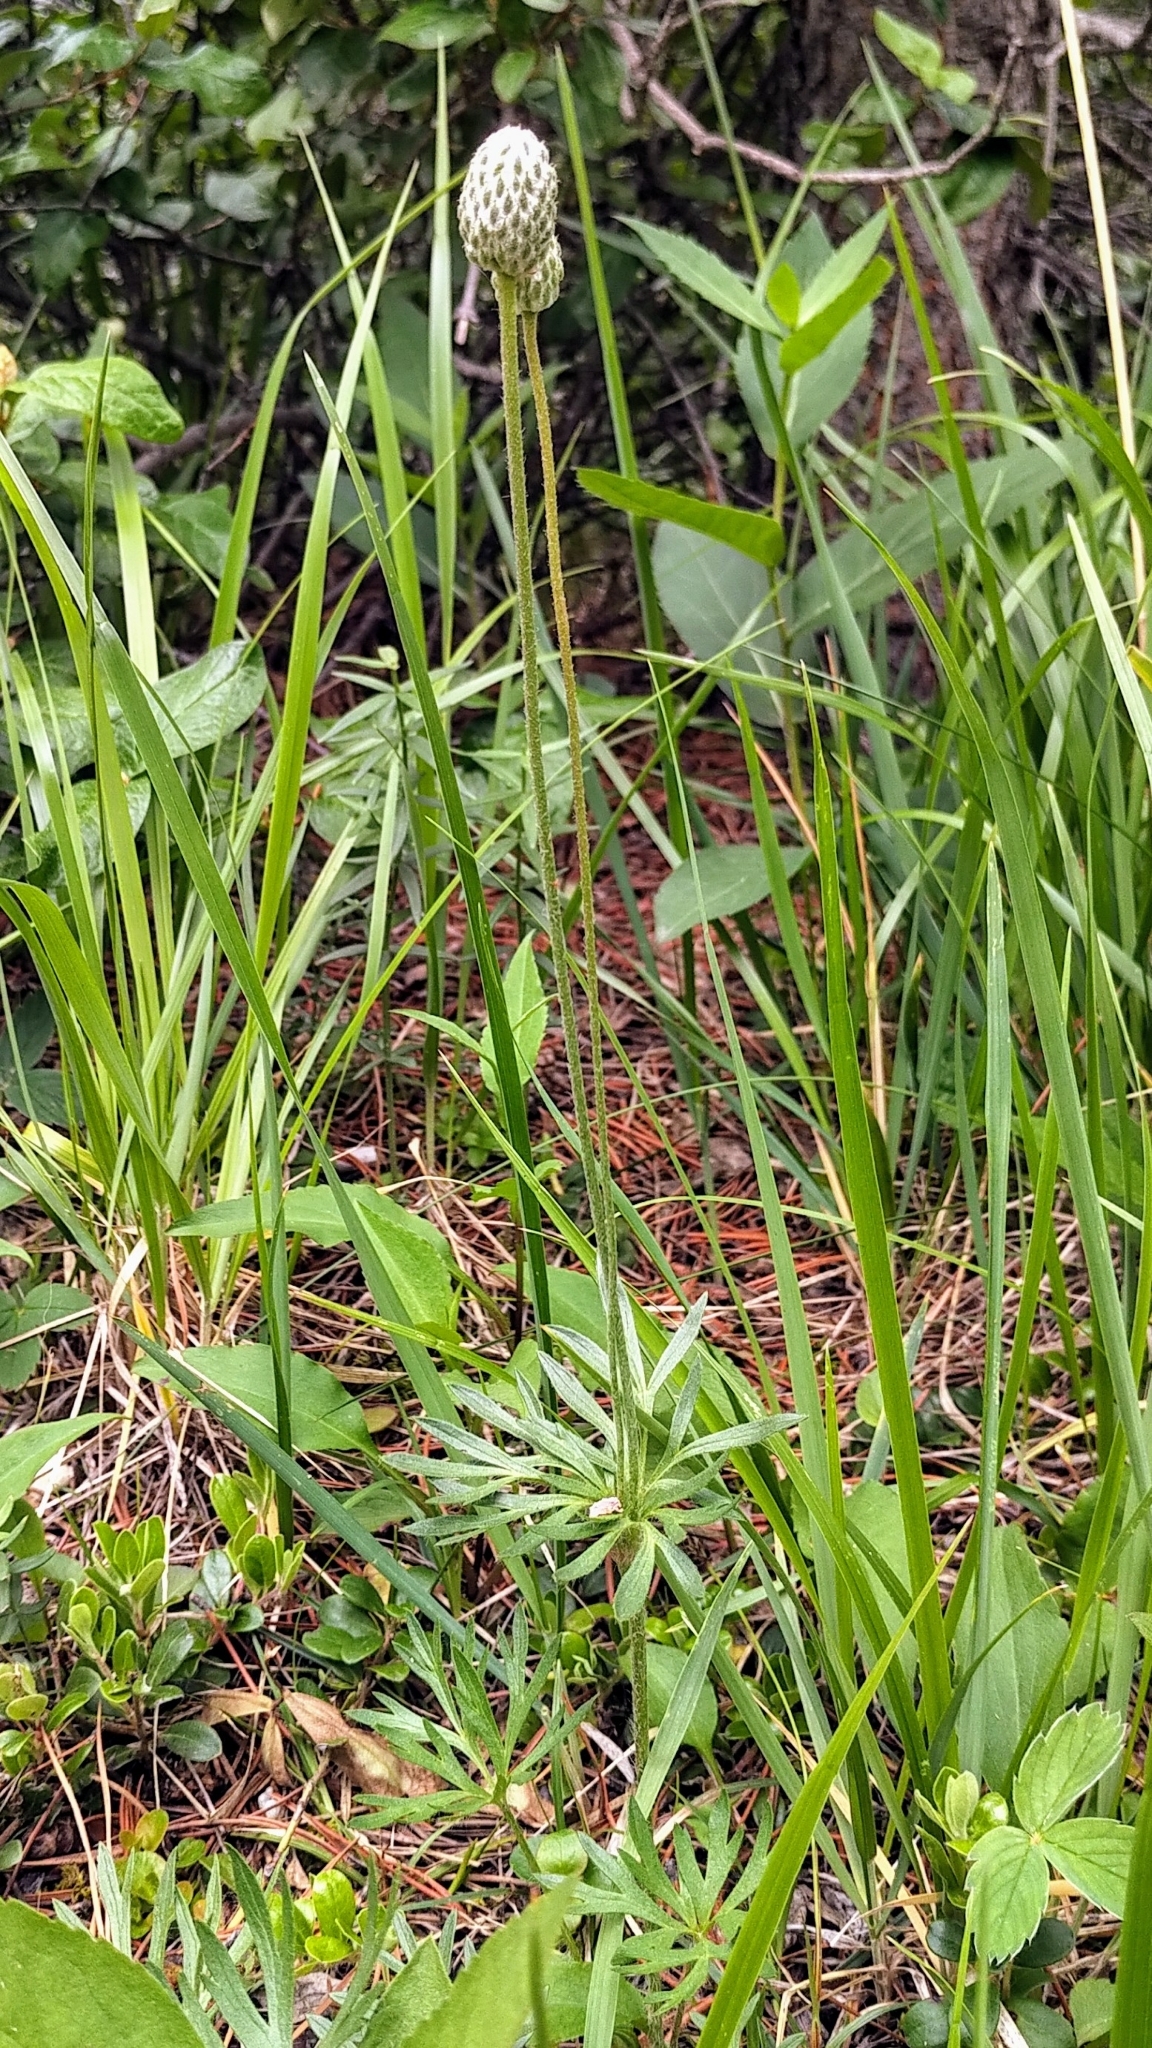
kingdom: Plantae
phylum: Tracheophyta
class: Magnoliopsida
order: Ranunculales
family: Ranunculaceae
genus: Anemone
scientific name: Anemone multifida
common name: Bird's-foot anemone
